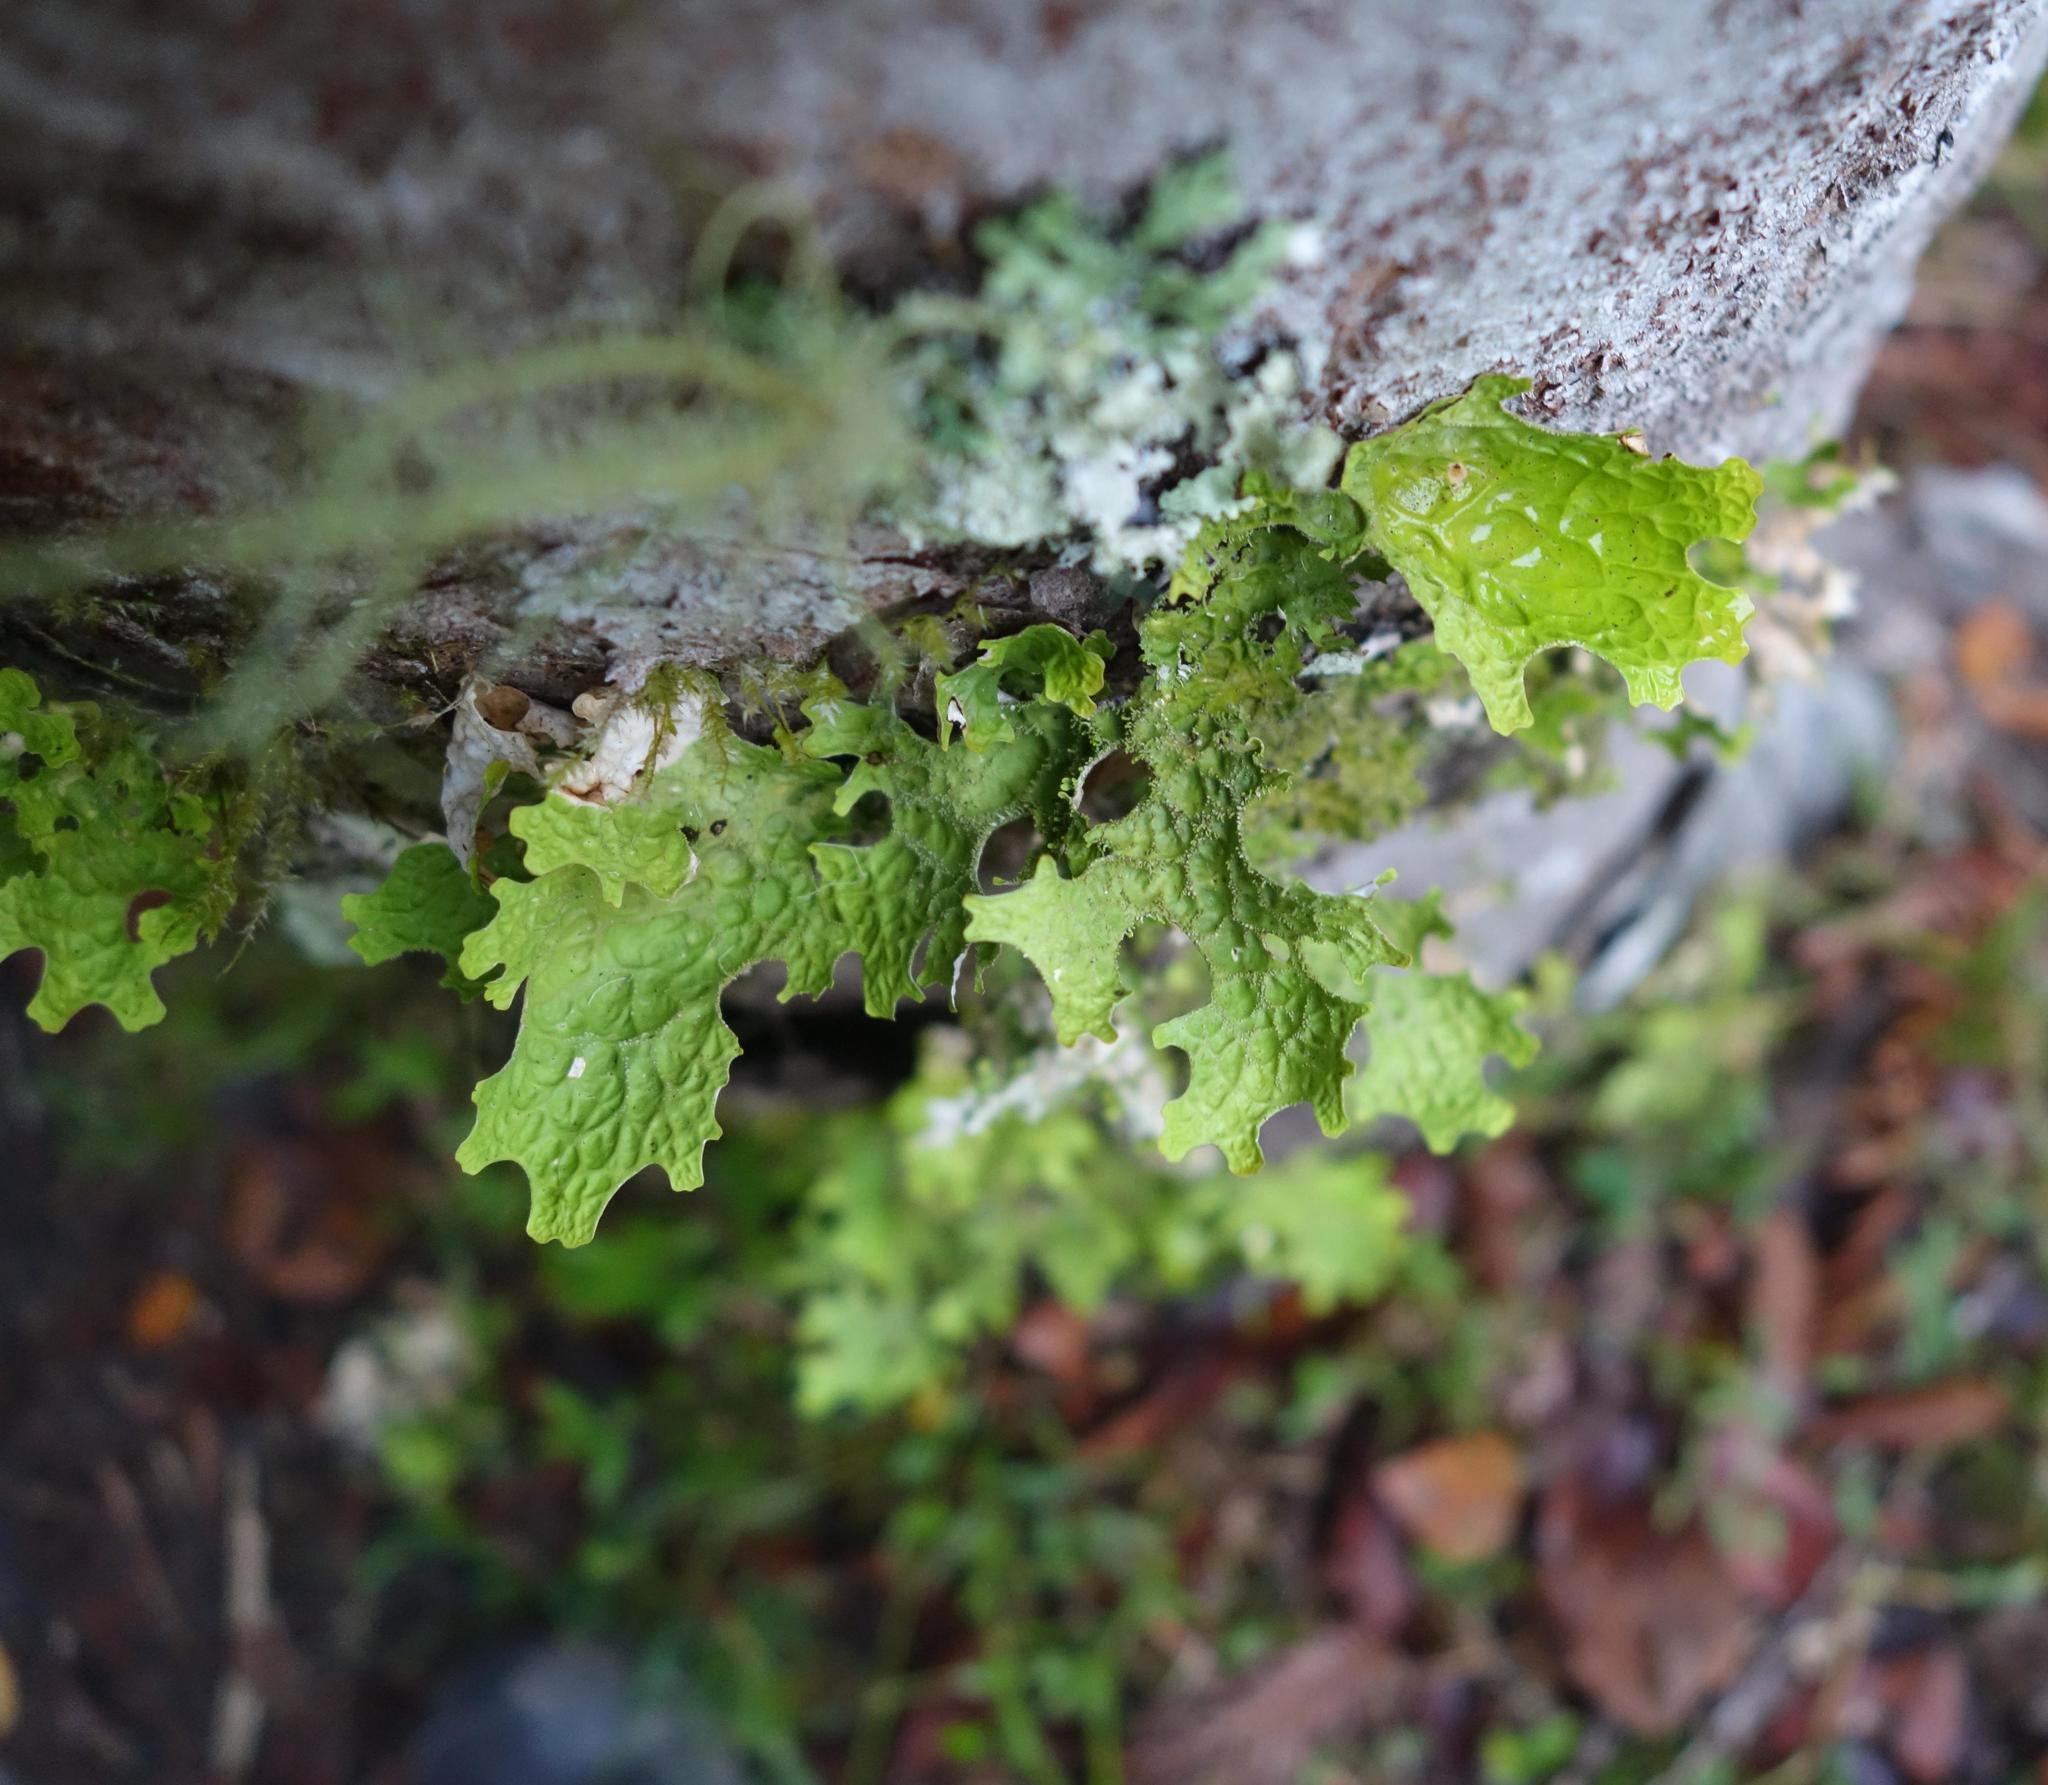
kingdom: Fungi
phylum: Ascomycota
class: Lecanoromycetes
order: Peltigerales
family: Lobariaceae
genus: Lobaria
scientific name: Lobaria pulmonaria
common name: Lungwort
